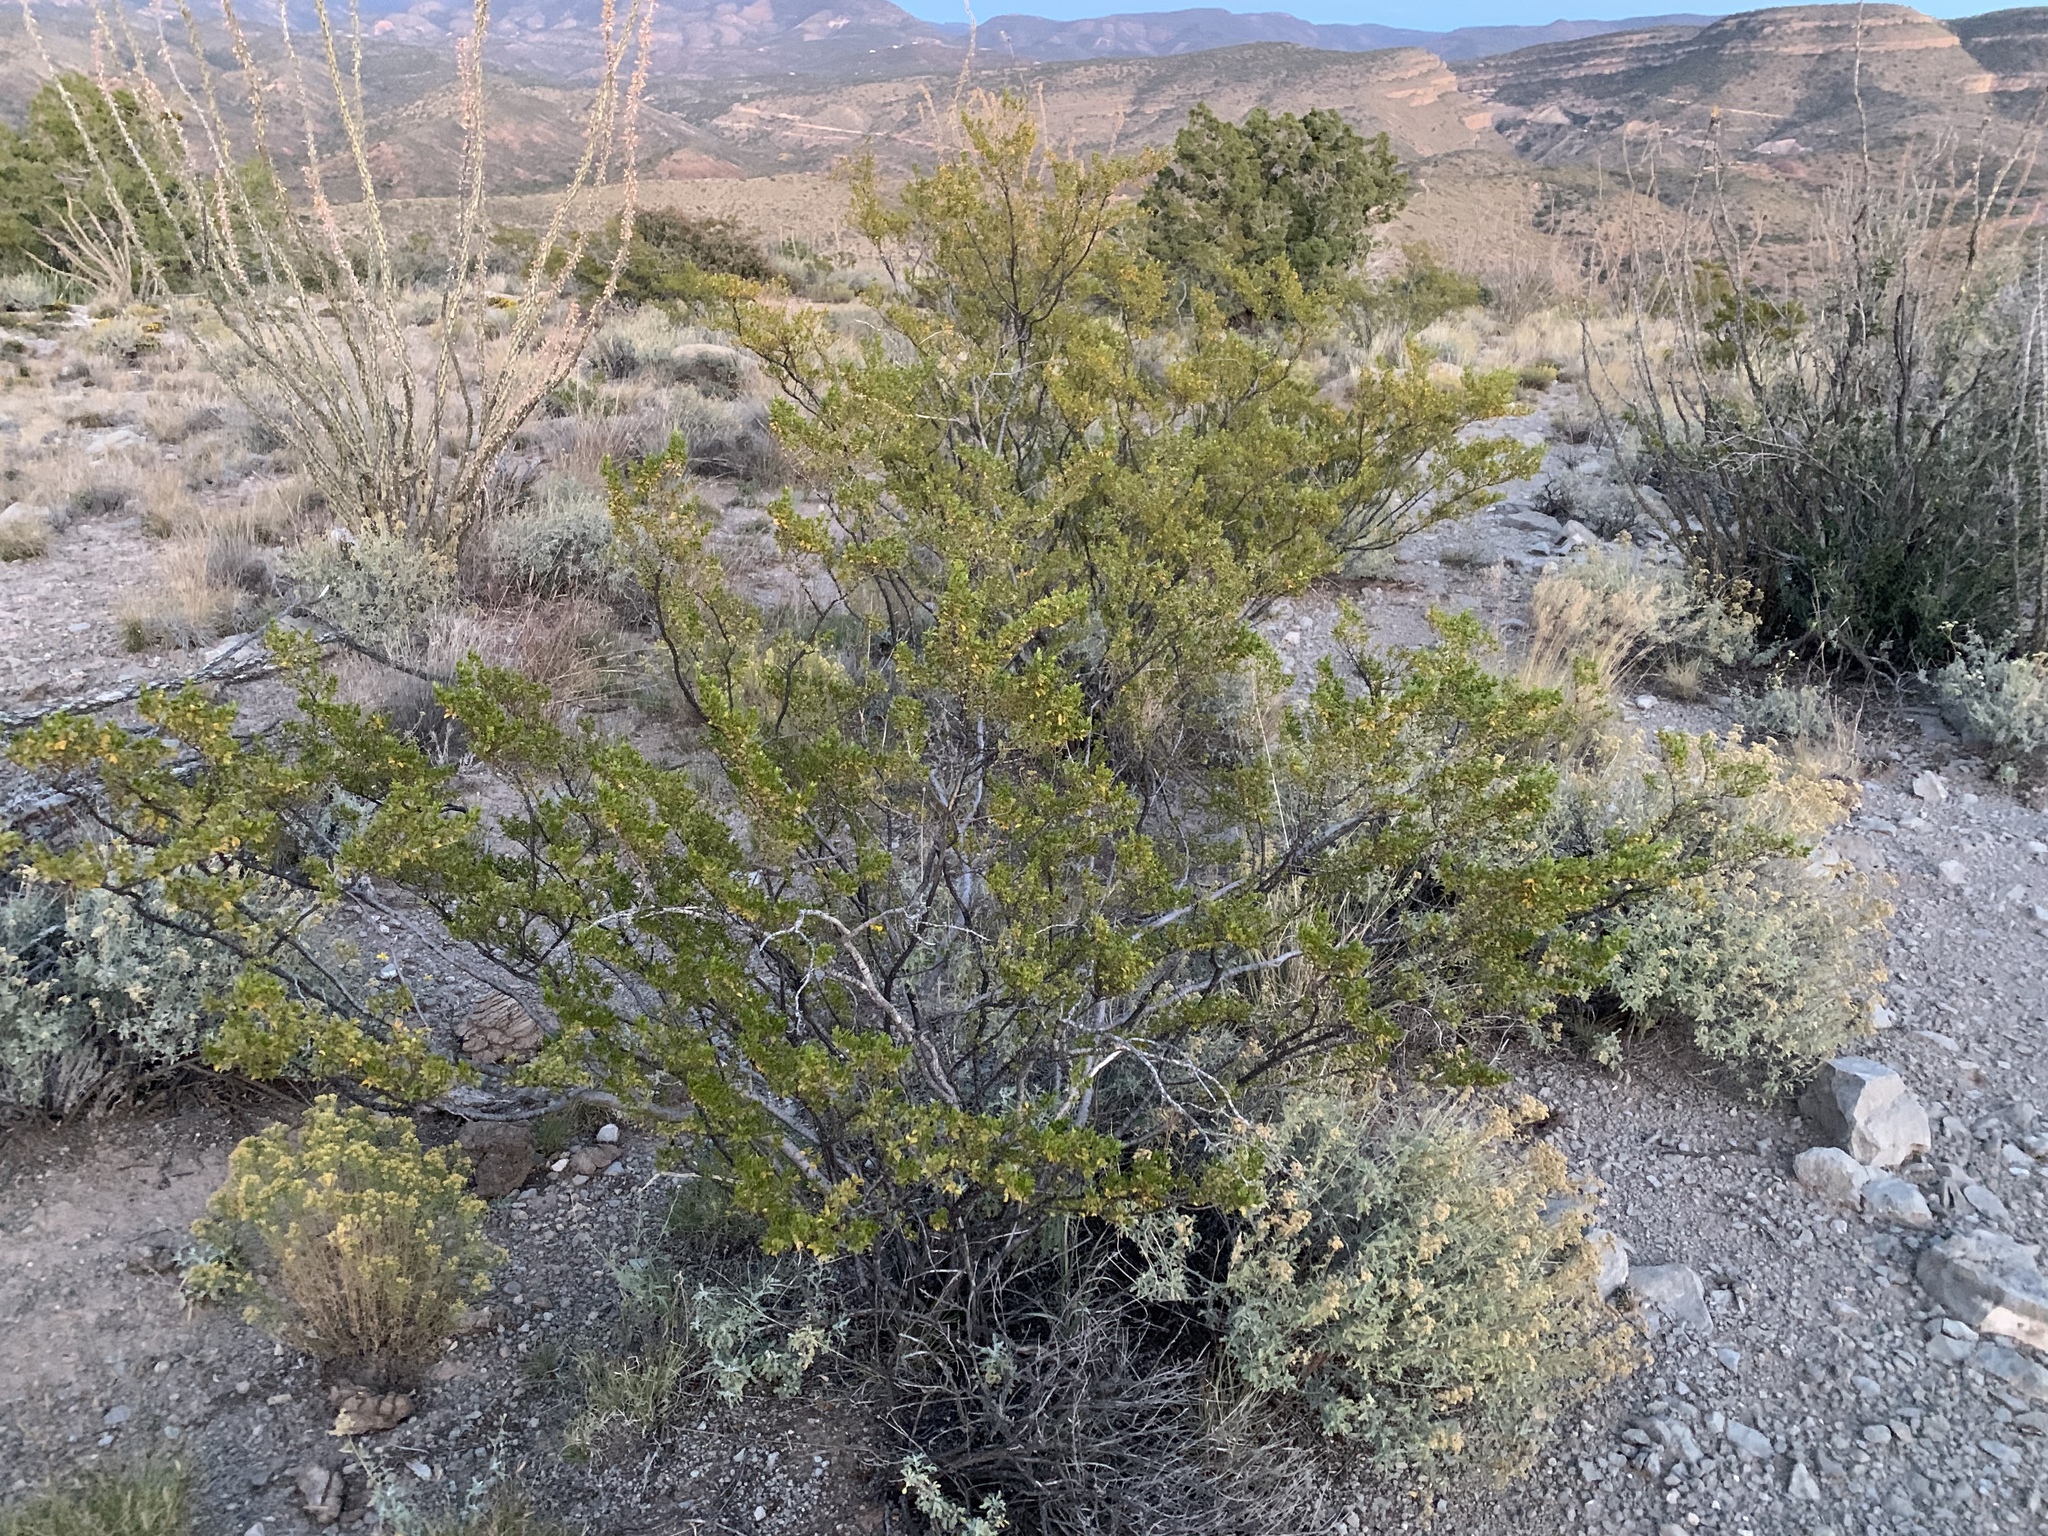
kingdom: Plantae
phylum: Tracheophyta
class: Magnoliopsida
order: Zygophyllales
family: Zygophyllaceae
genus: Larrea
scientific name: Larrea tridentata
